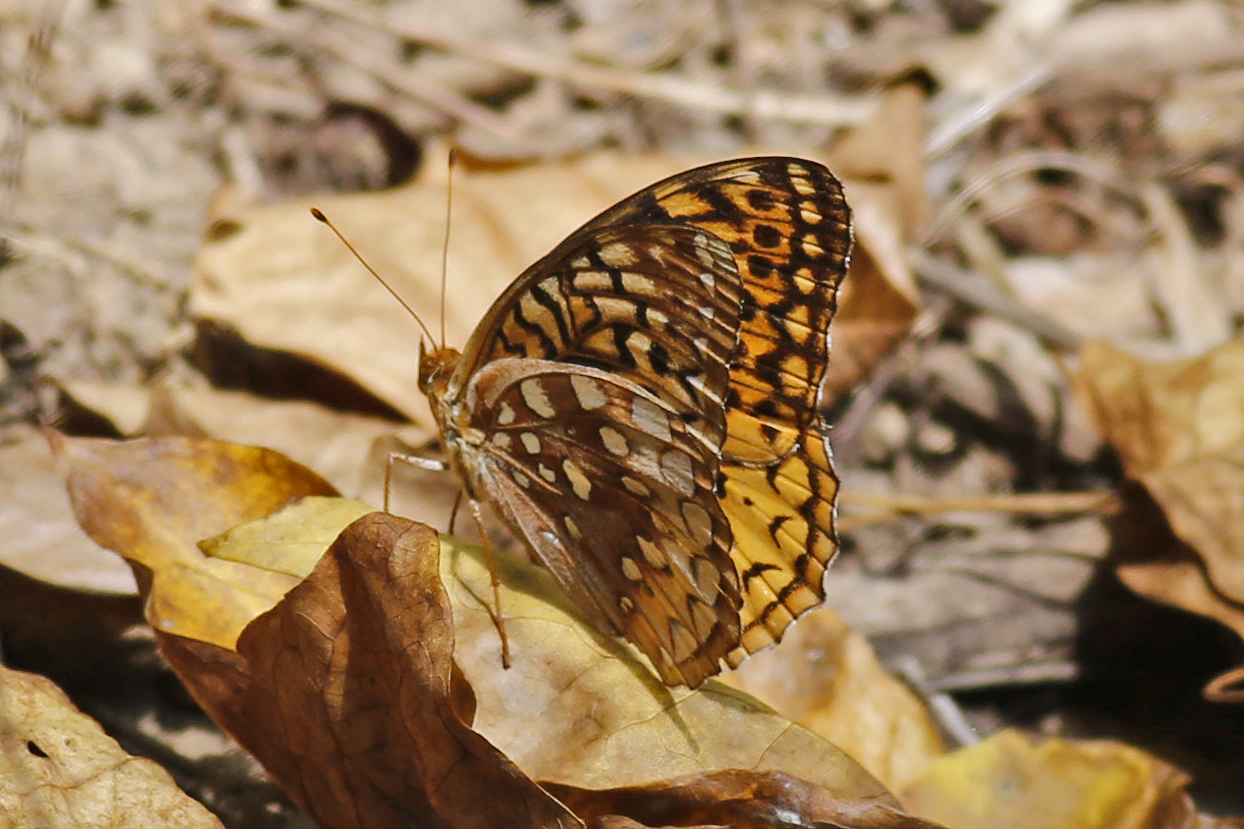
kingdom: Animalia
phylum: Arthropoda
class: Insecta
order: Lepidoptera
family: Nymphalidae
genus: Speyeria
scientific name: Speyeria cybele
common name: Great spangled fritillary
